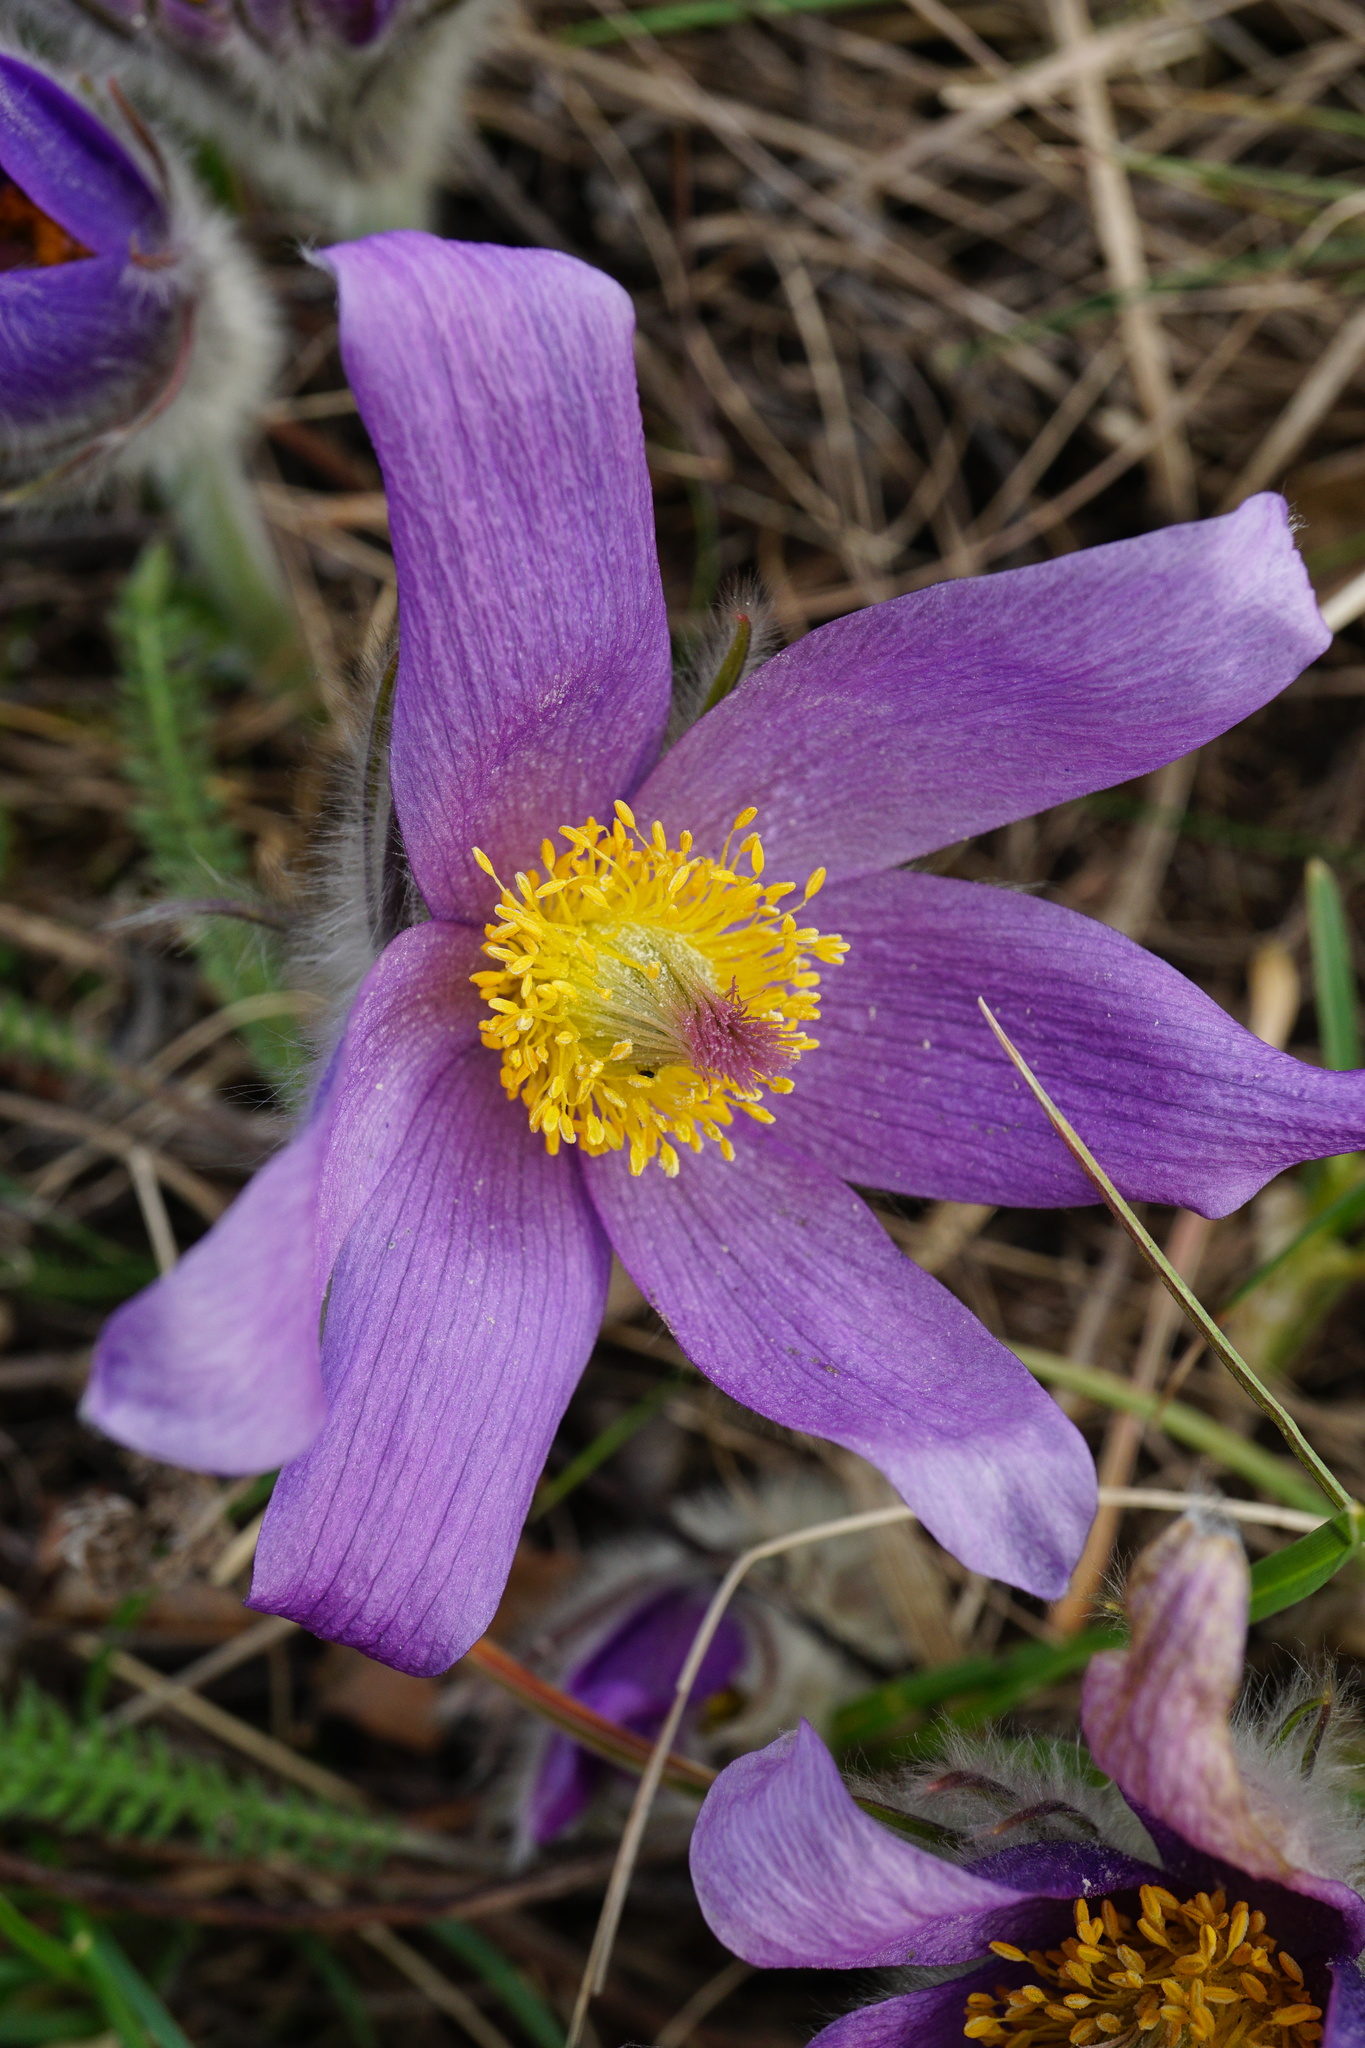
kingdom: Plantae
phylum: Tracheophyta
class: Magnoliopsida
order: Ranunculales
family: Ranunculaceae
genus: Pulsatilla
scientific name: Pulsatilla grandis
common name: Greater pasque flower
